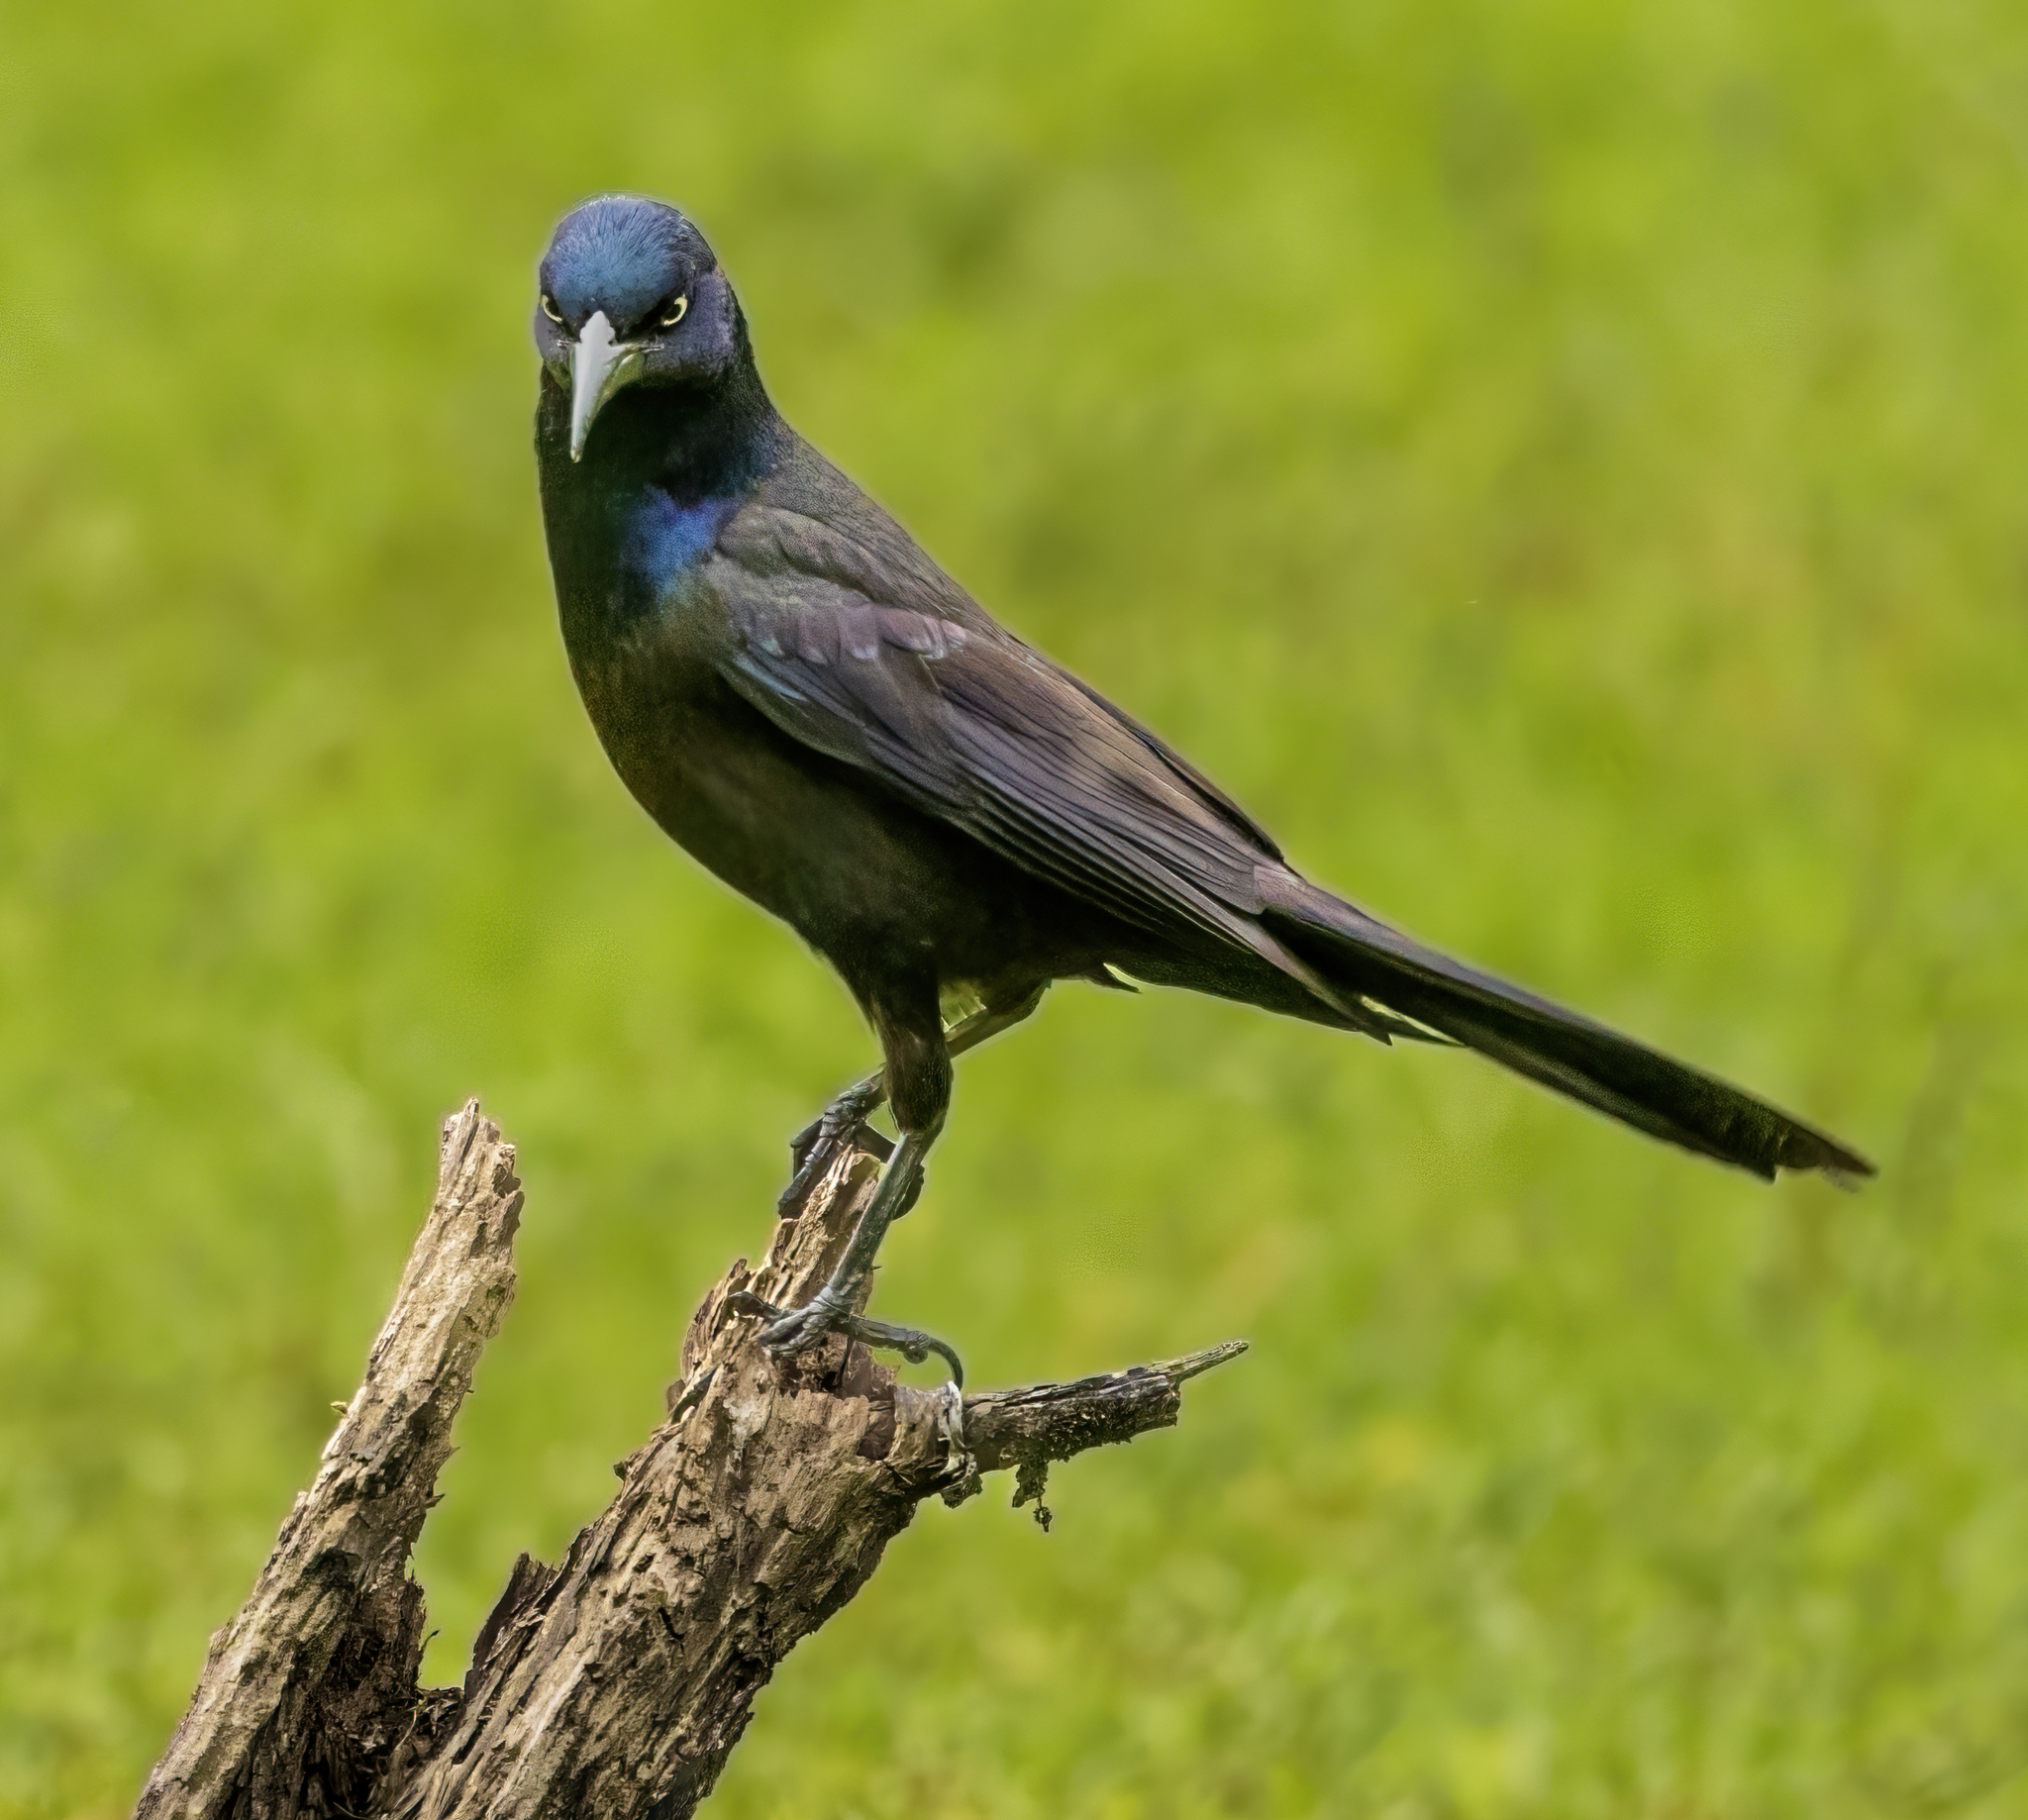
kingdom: Animalia
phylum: Chordata
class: Aves
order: Passeriformes
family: Icteridae
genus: Quiscalus
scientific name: Quiscalus quiscula
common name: Common grackle
